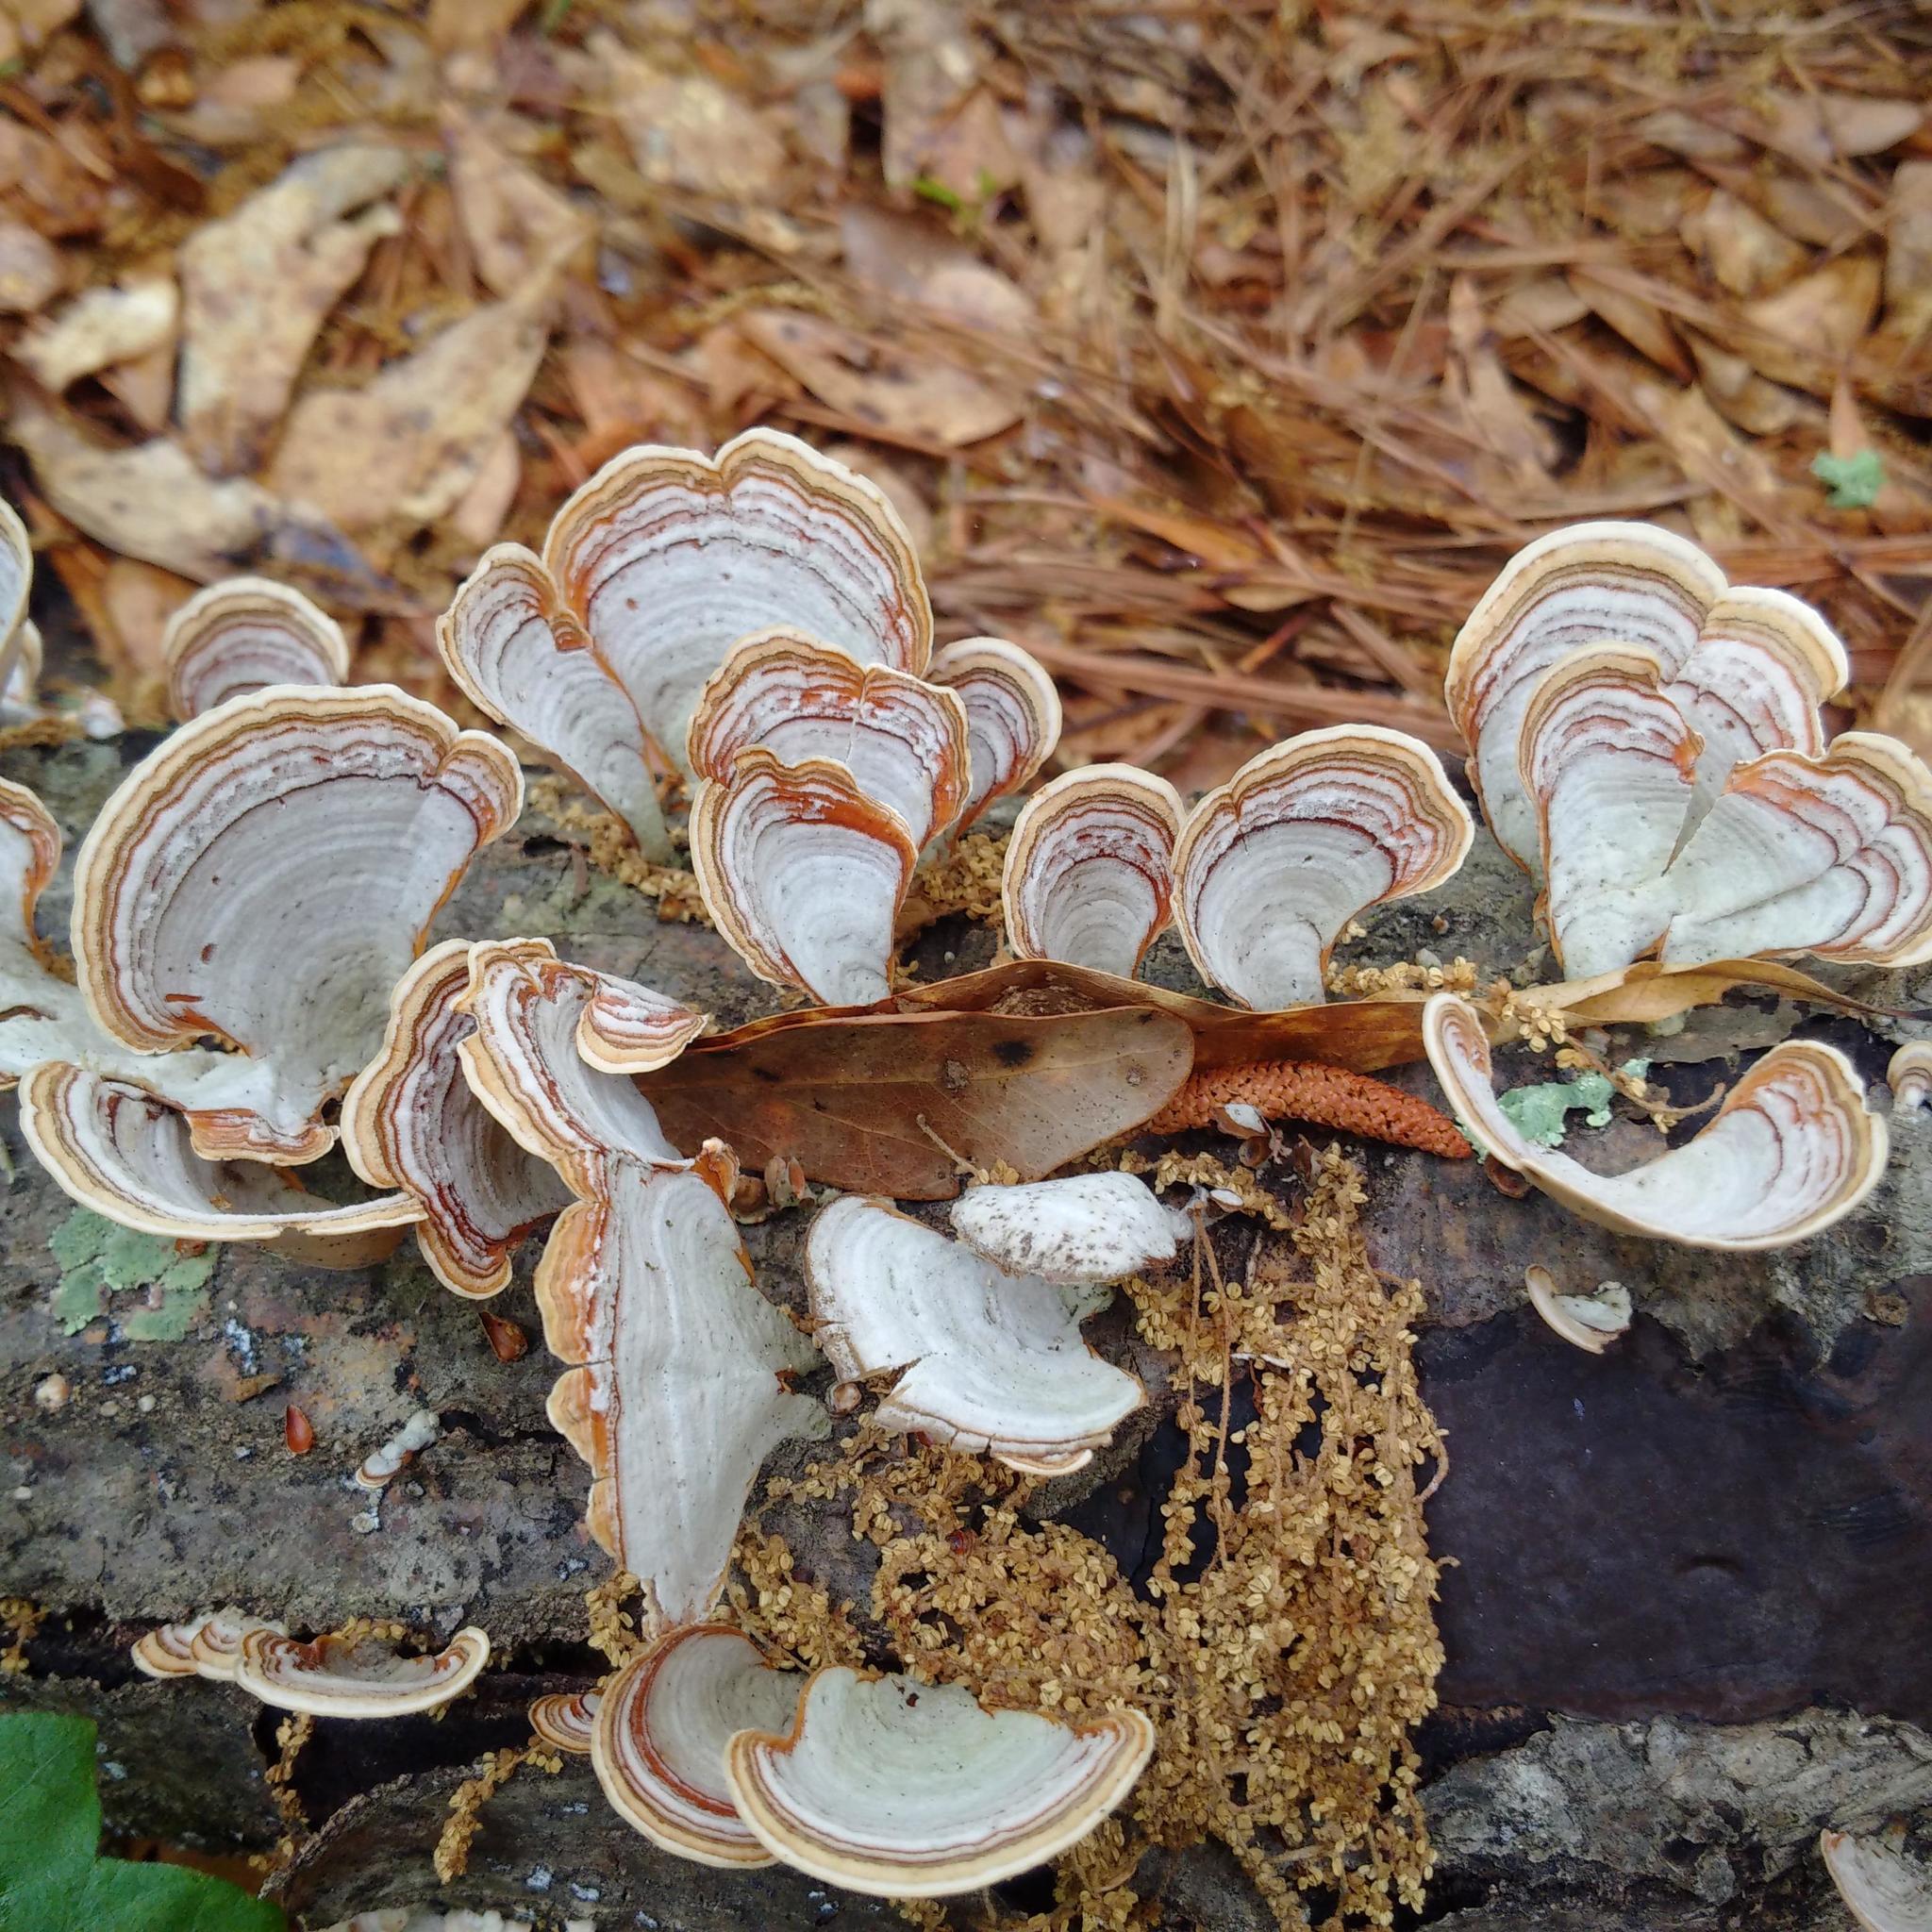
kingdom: Fungi
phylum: Basidiomycota
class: Agaricomycetes
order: Russulales
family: Stereaceae
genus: Stereum
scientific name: Stereum ostrea
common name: False turkeytail
